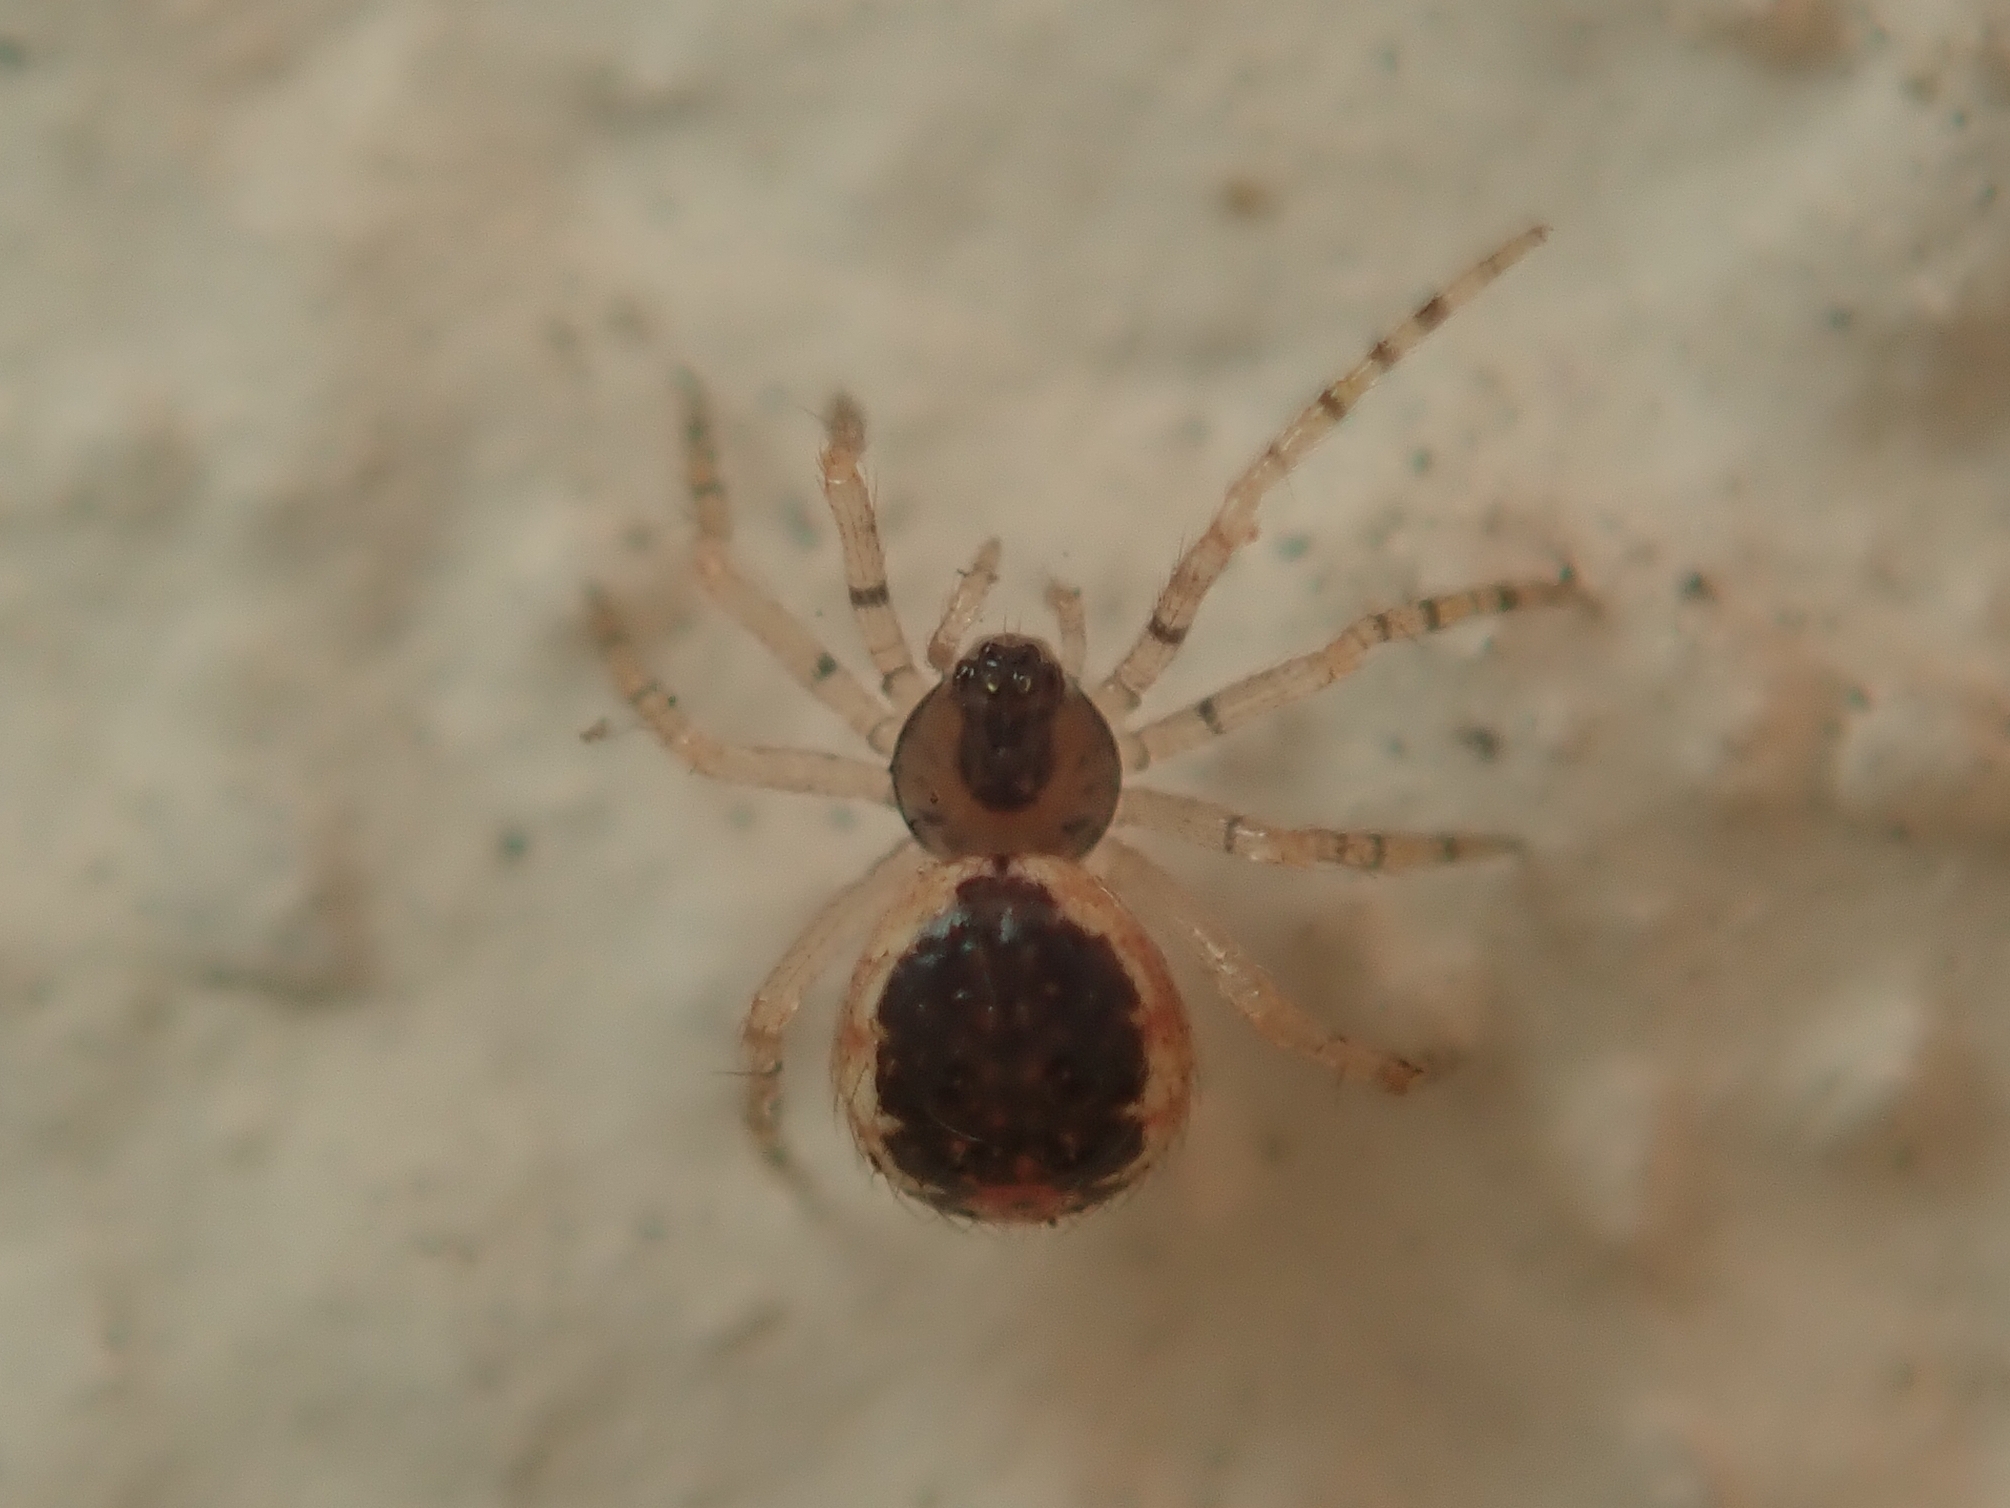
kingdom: Animalia
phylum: Arthropoda
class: Arachnida
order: Araneae
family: Theridiidae
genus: Sardinidion
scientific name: Sardinidion blackwalli
